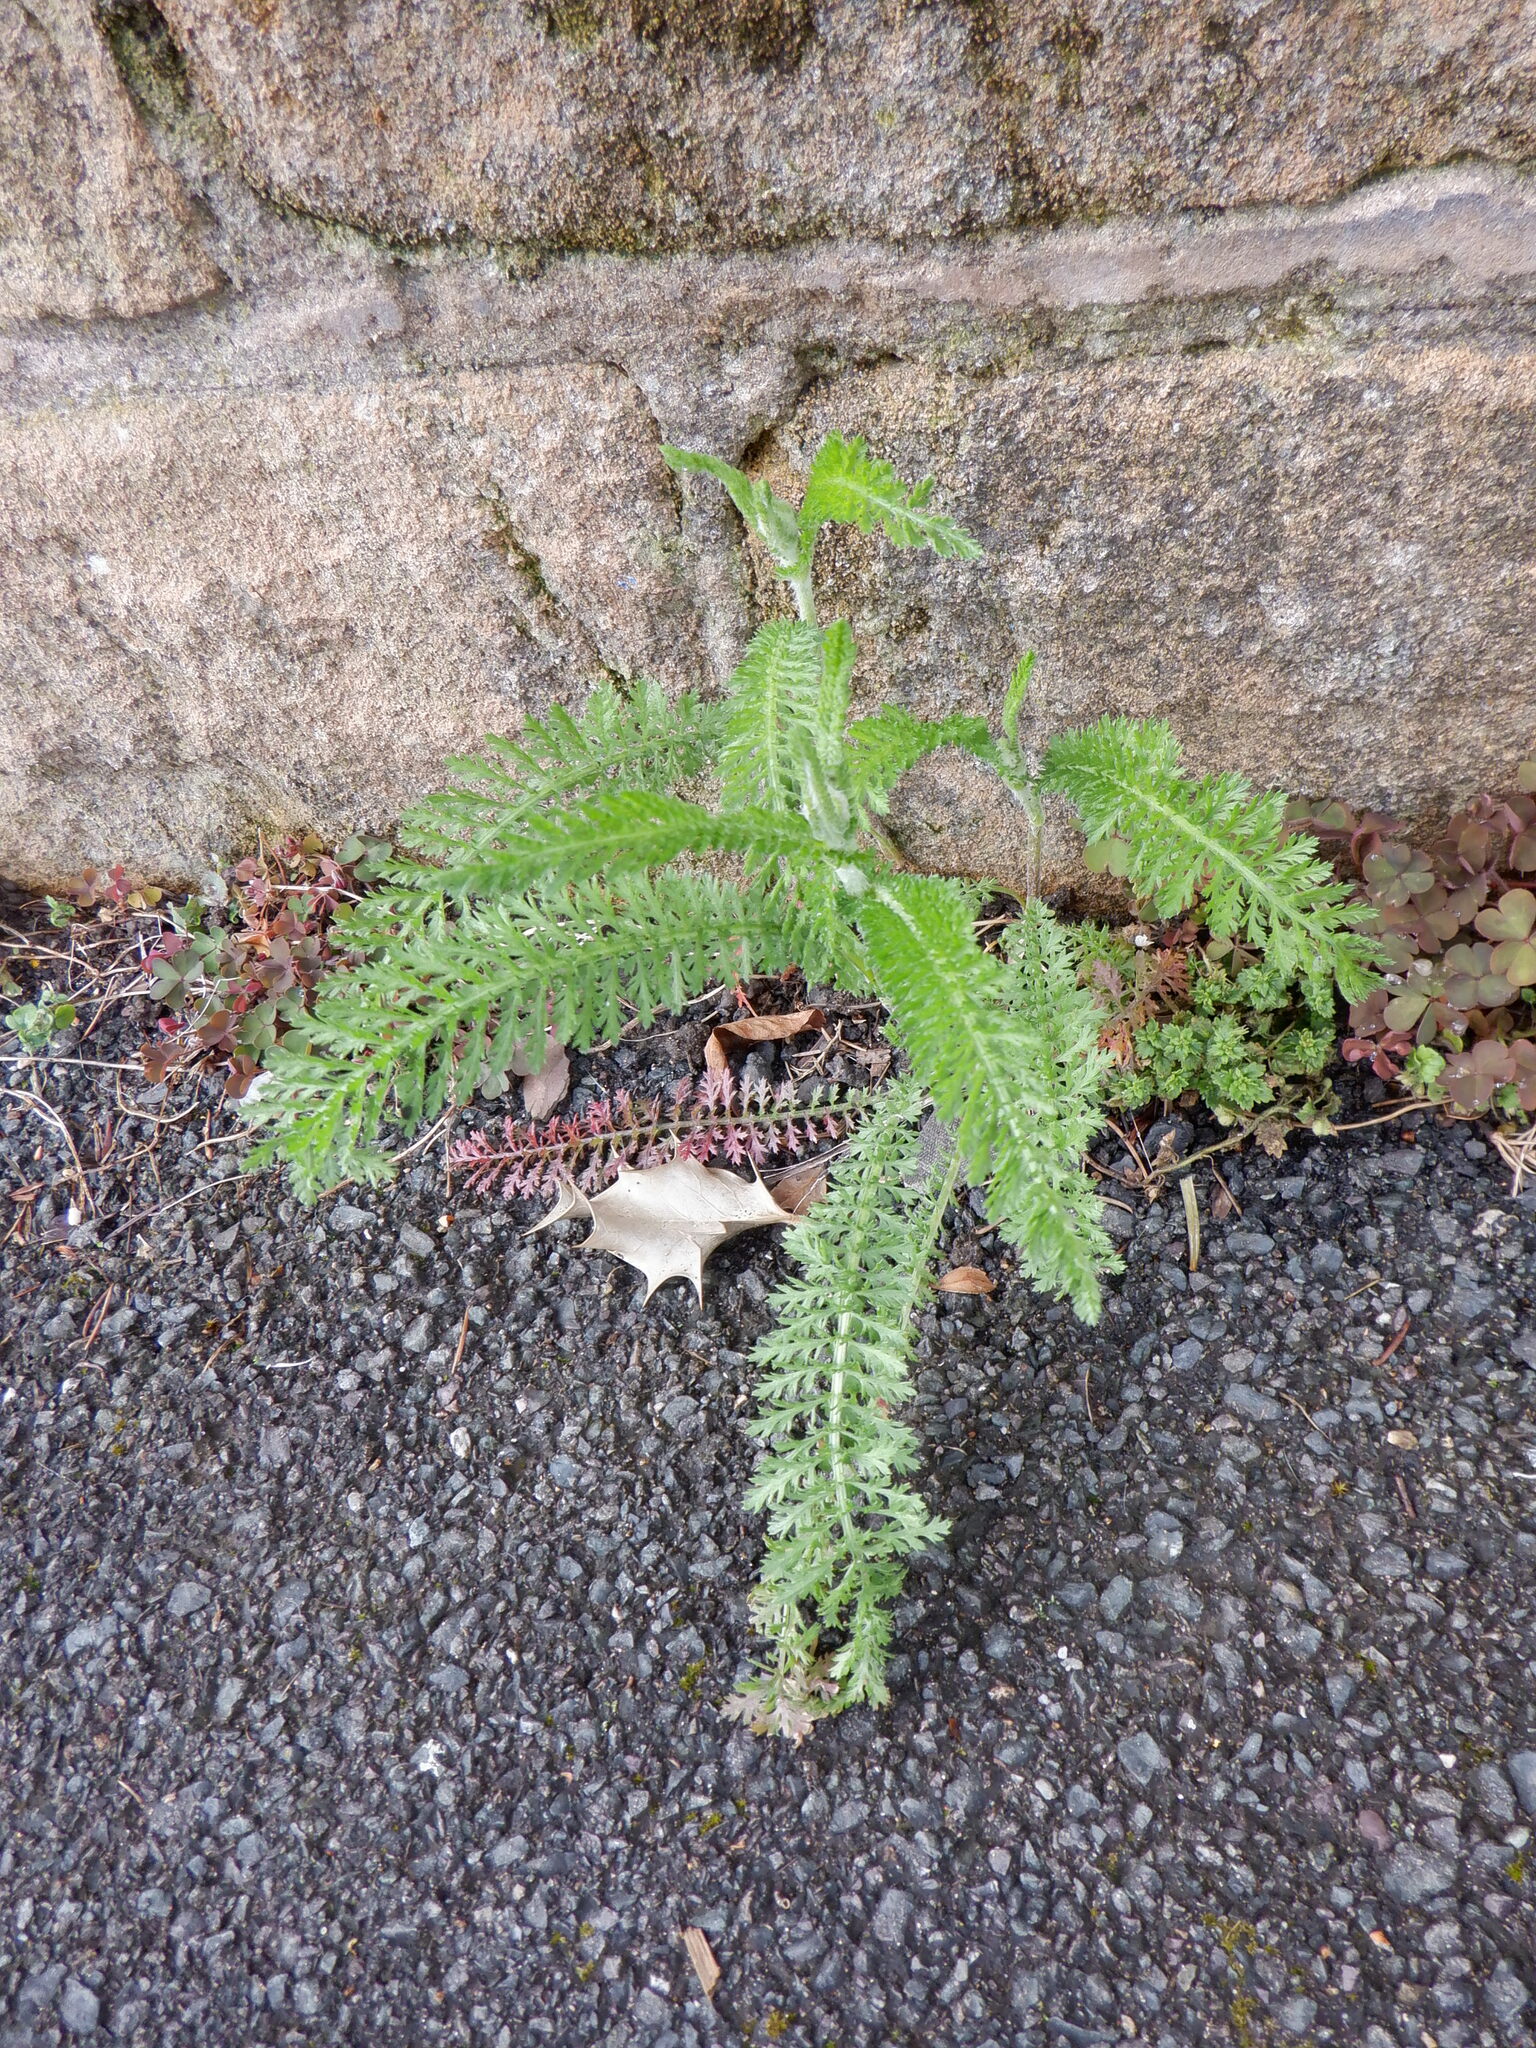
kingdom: Plantae
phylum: Tracheophyta
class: Magnoliopsida
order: Asterales
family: Asteraceae
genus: Achillea
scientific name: Achillea millefolium
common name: Yarrow
